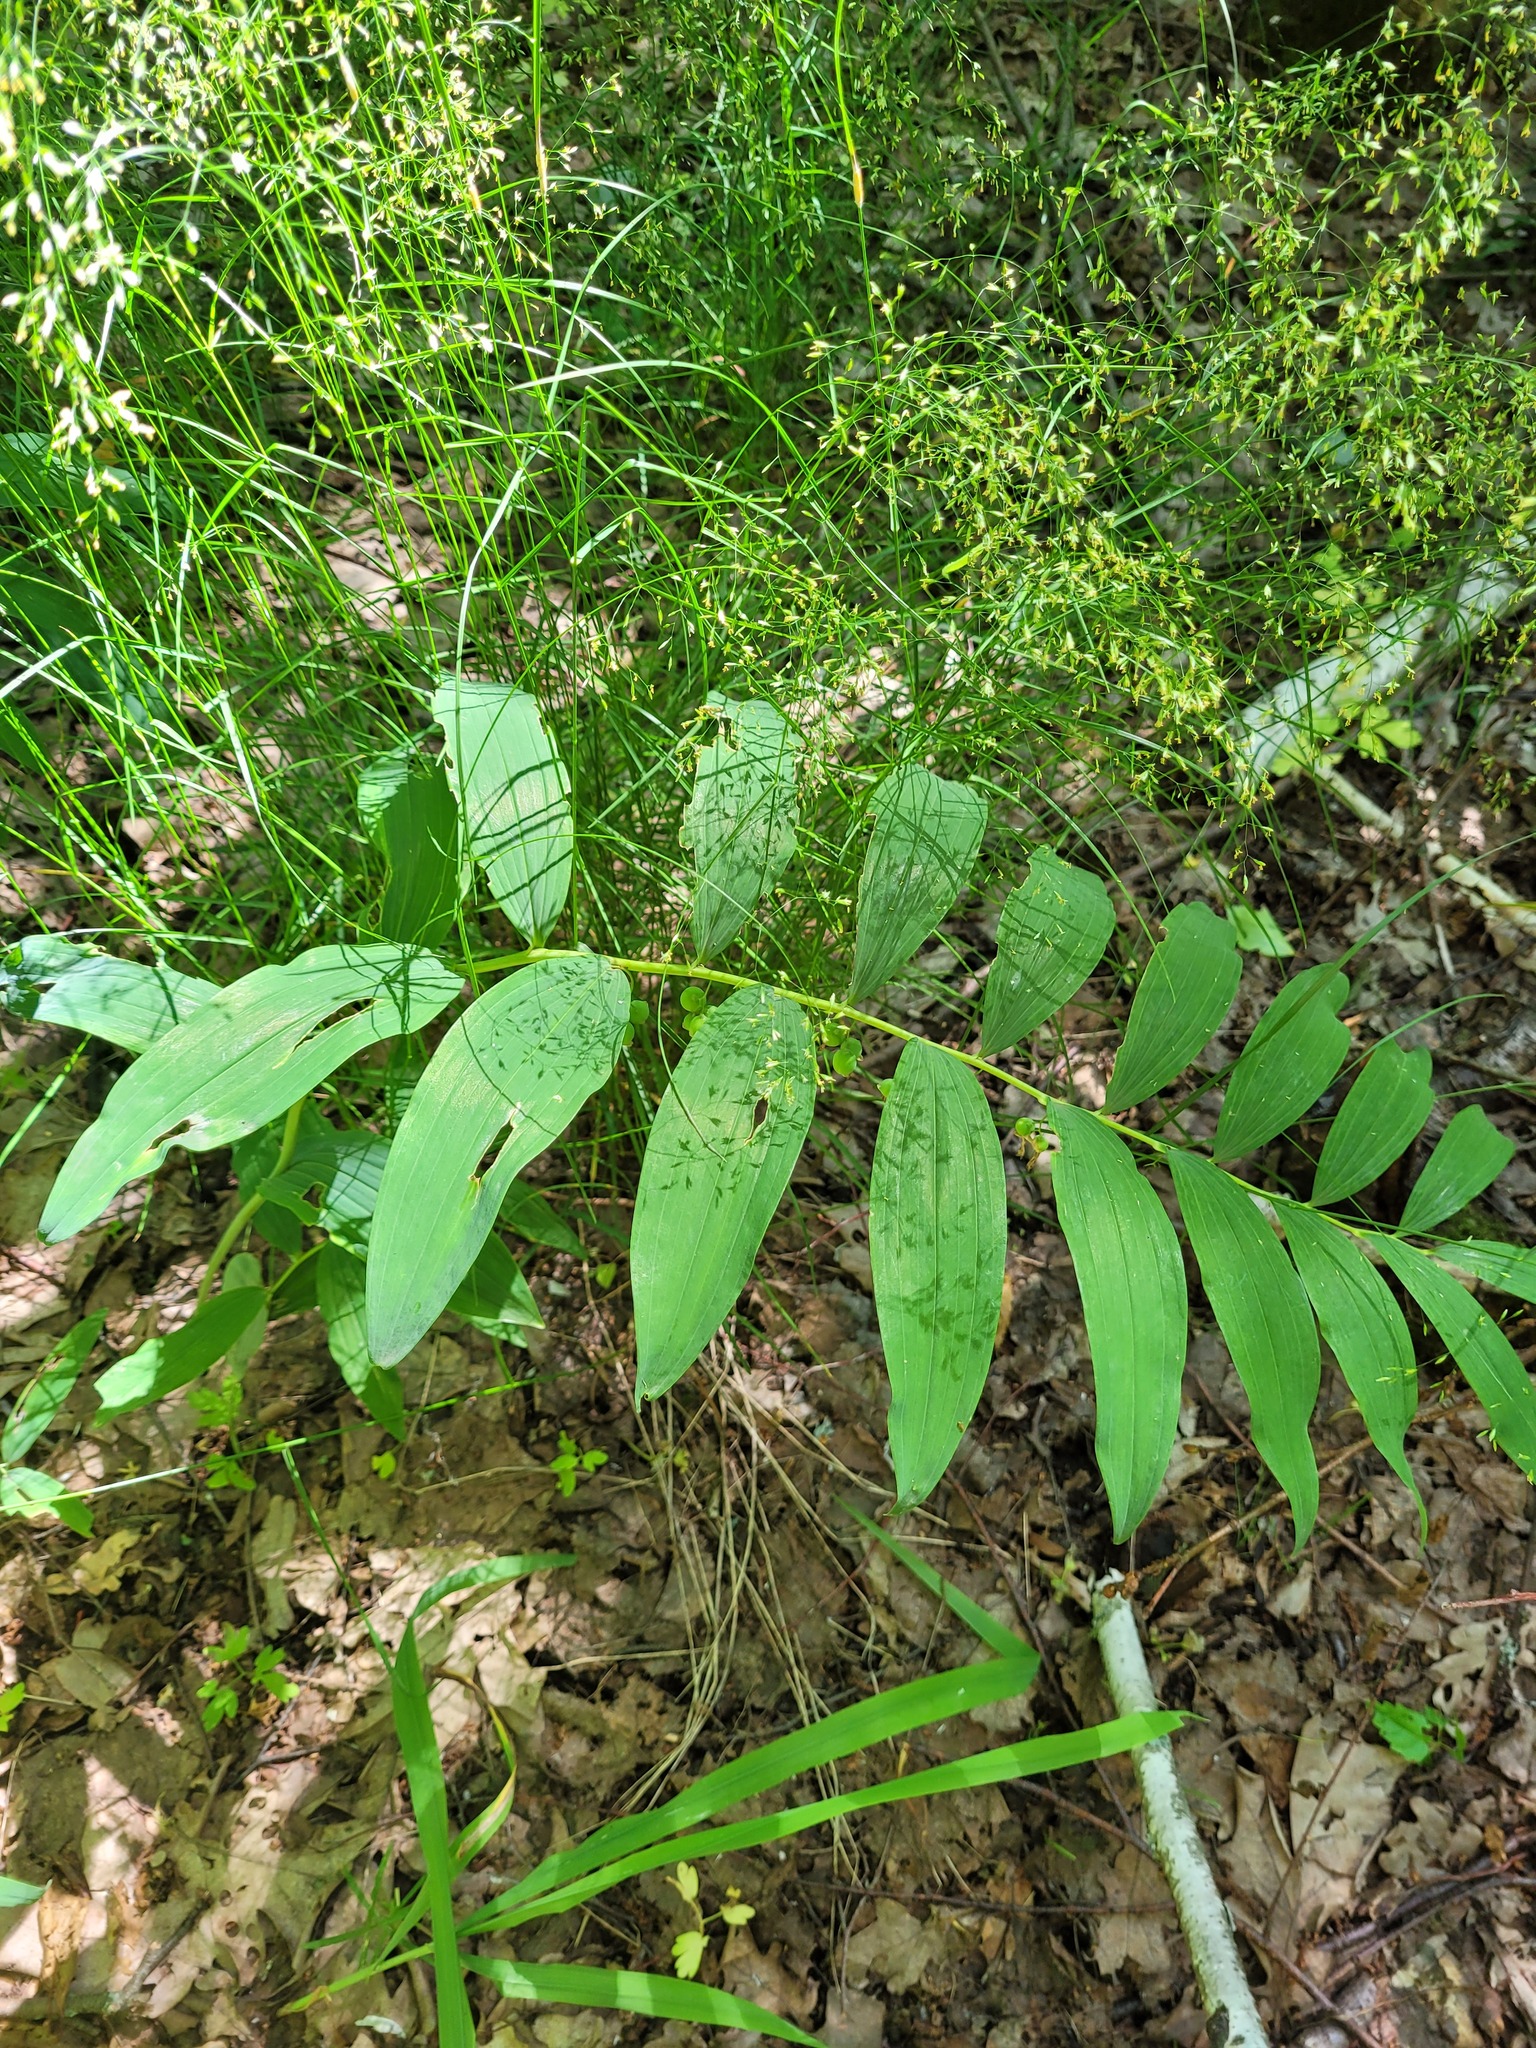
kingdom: Plantae
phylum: Tracheophyta
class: Liliopsida
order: Asparagales
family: Asparagaceae
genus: Polygonatum
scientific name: Polygonatum multiflorum
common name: Solomon's-seal
